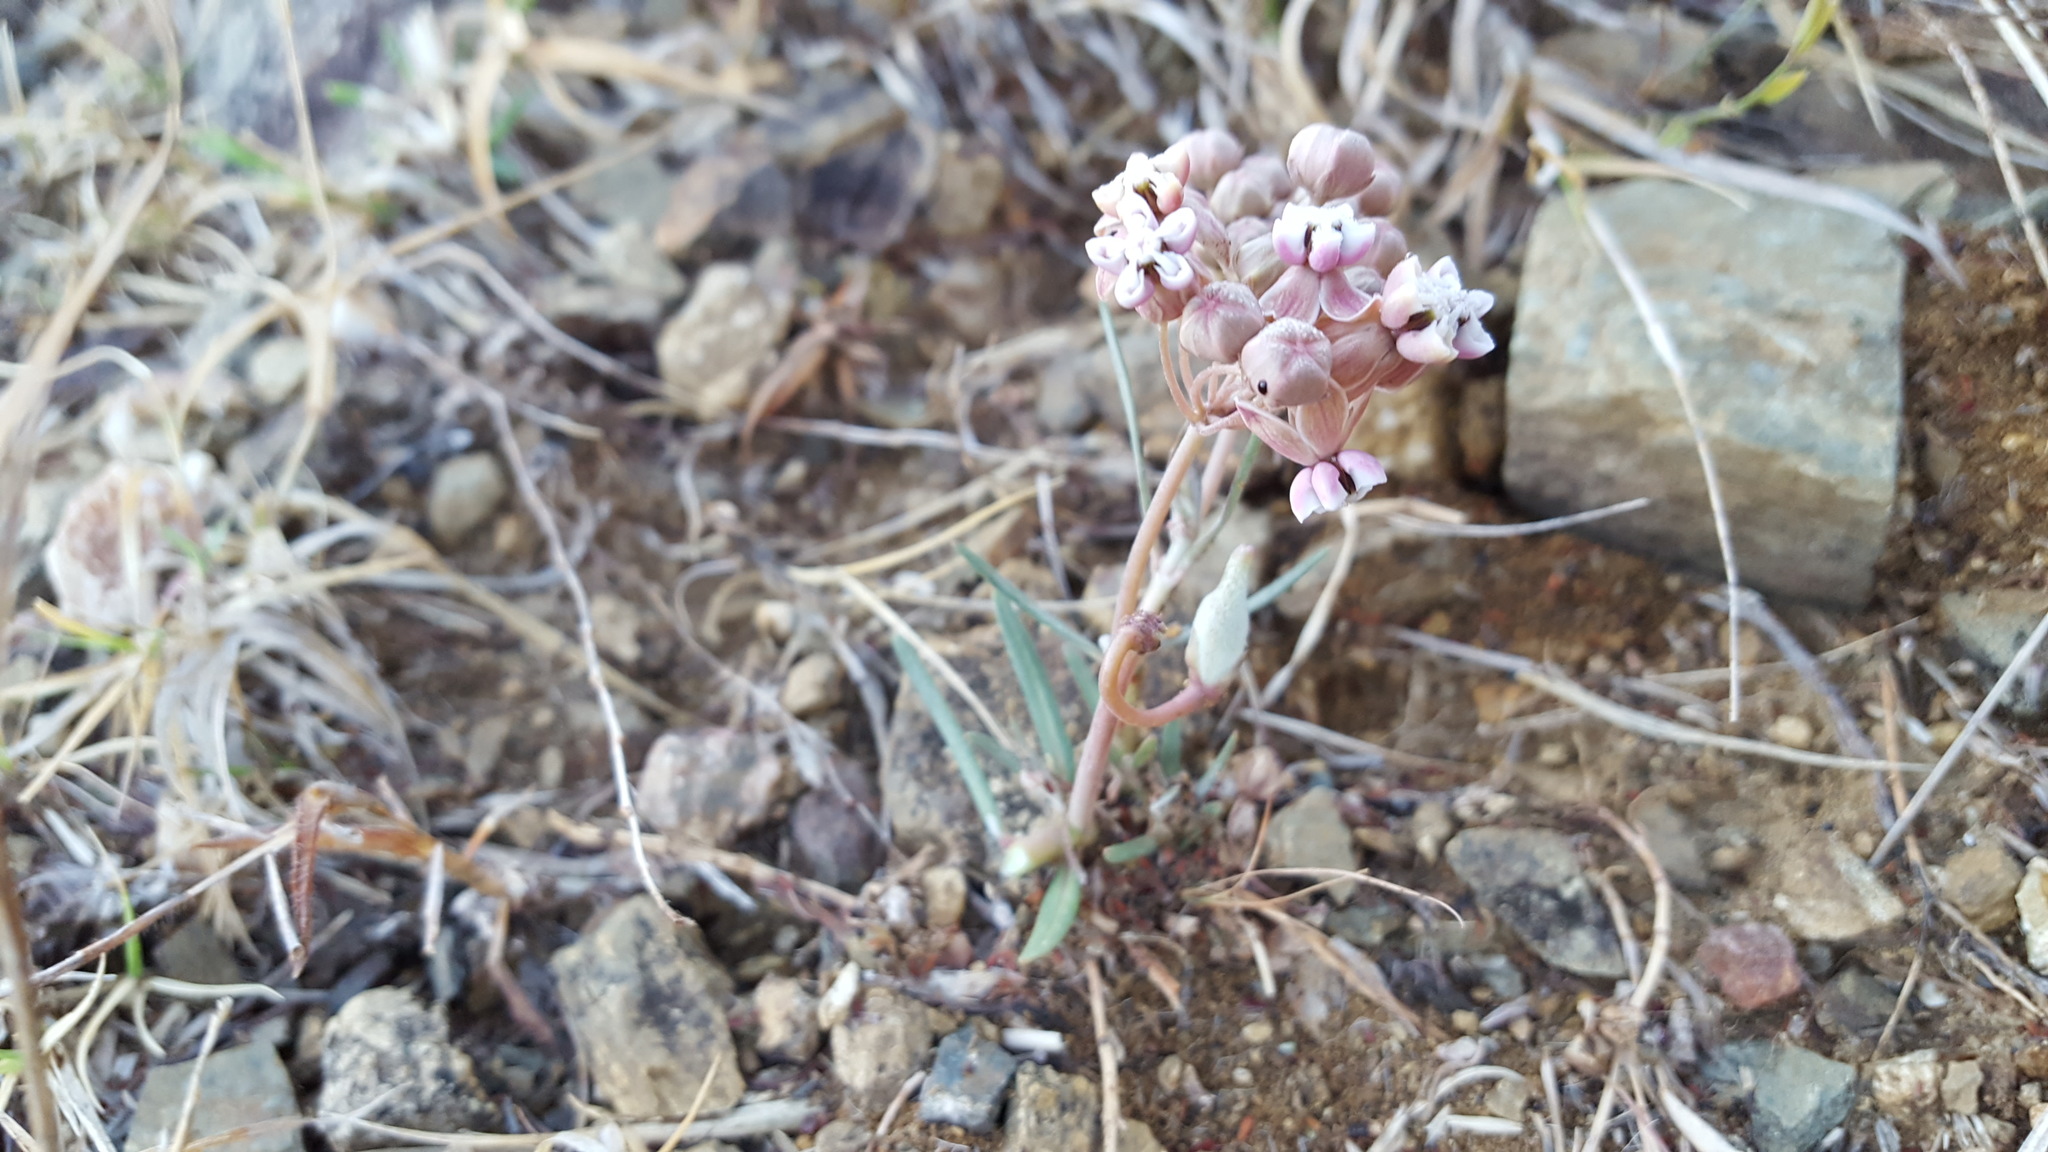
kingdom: Plantae
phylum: Tracheophyta
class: Magnoliopsida
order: Gentianales
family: Apocynaceae
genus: Asclepias
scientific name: Asclepias senecionifolia
